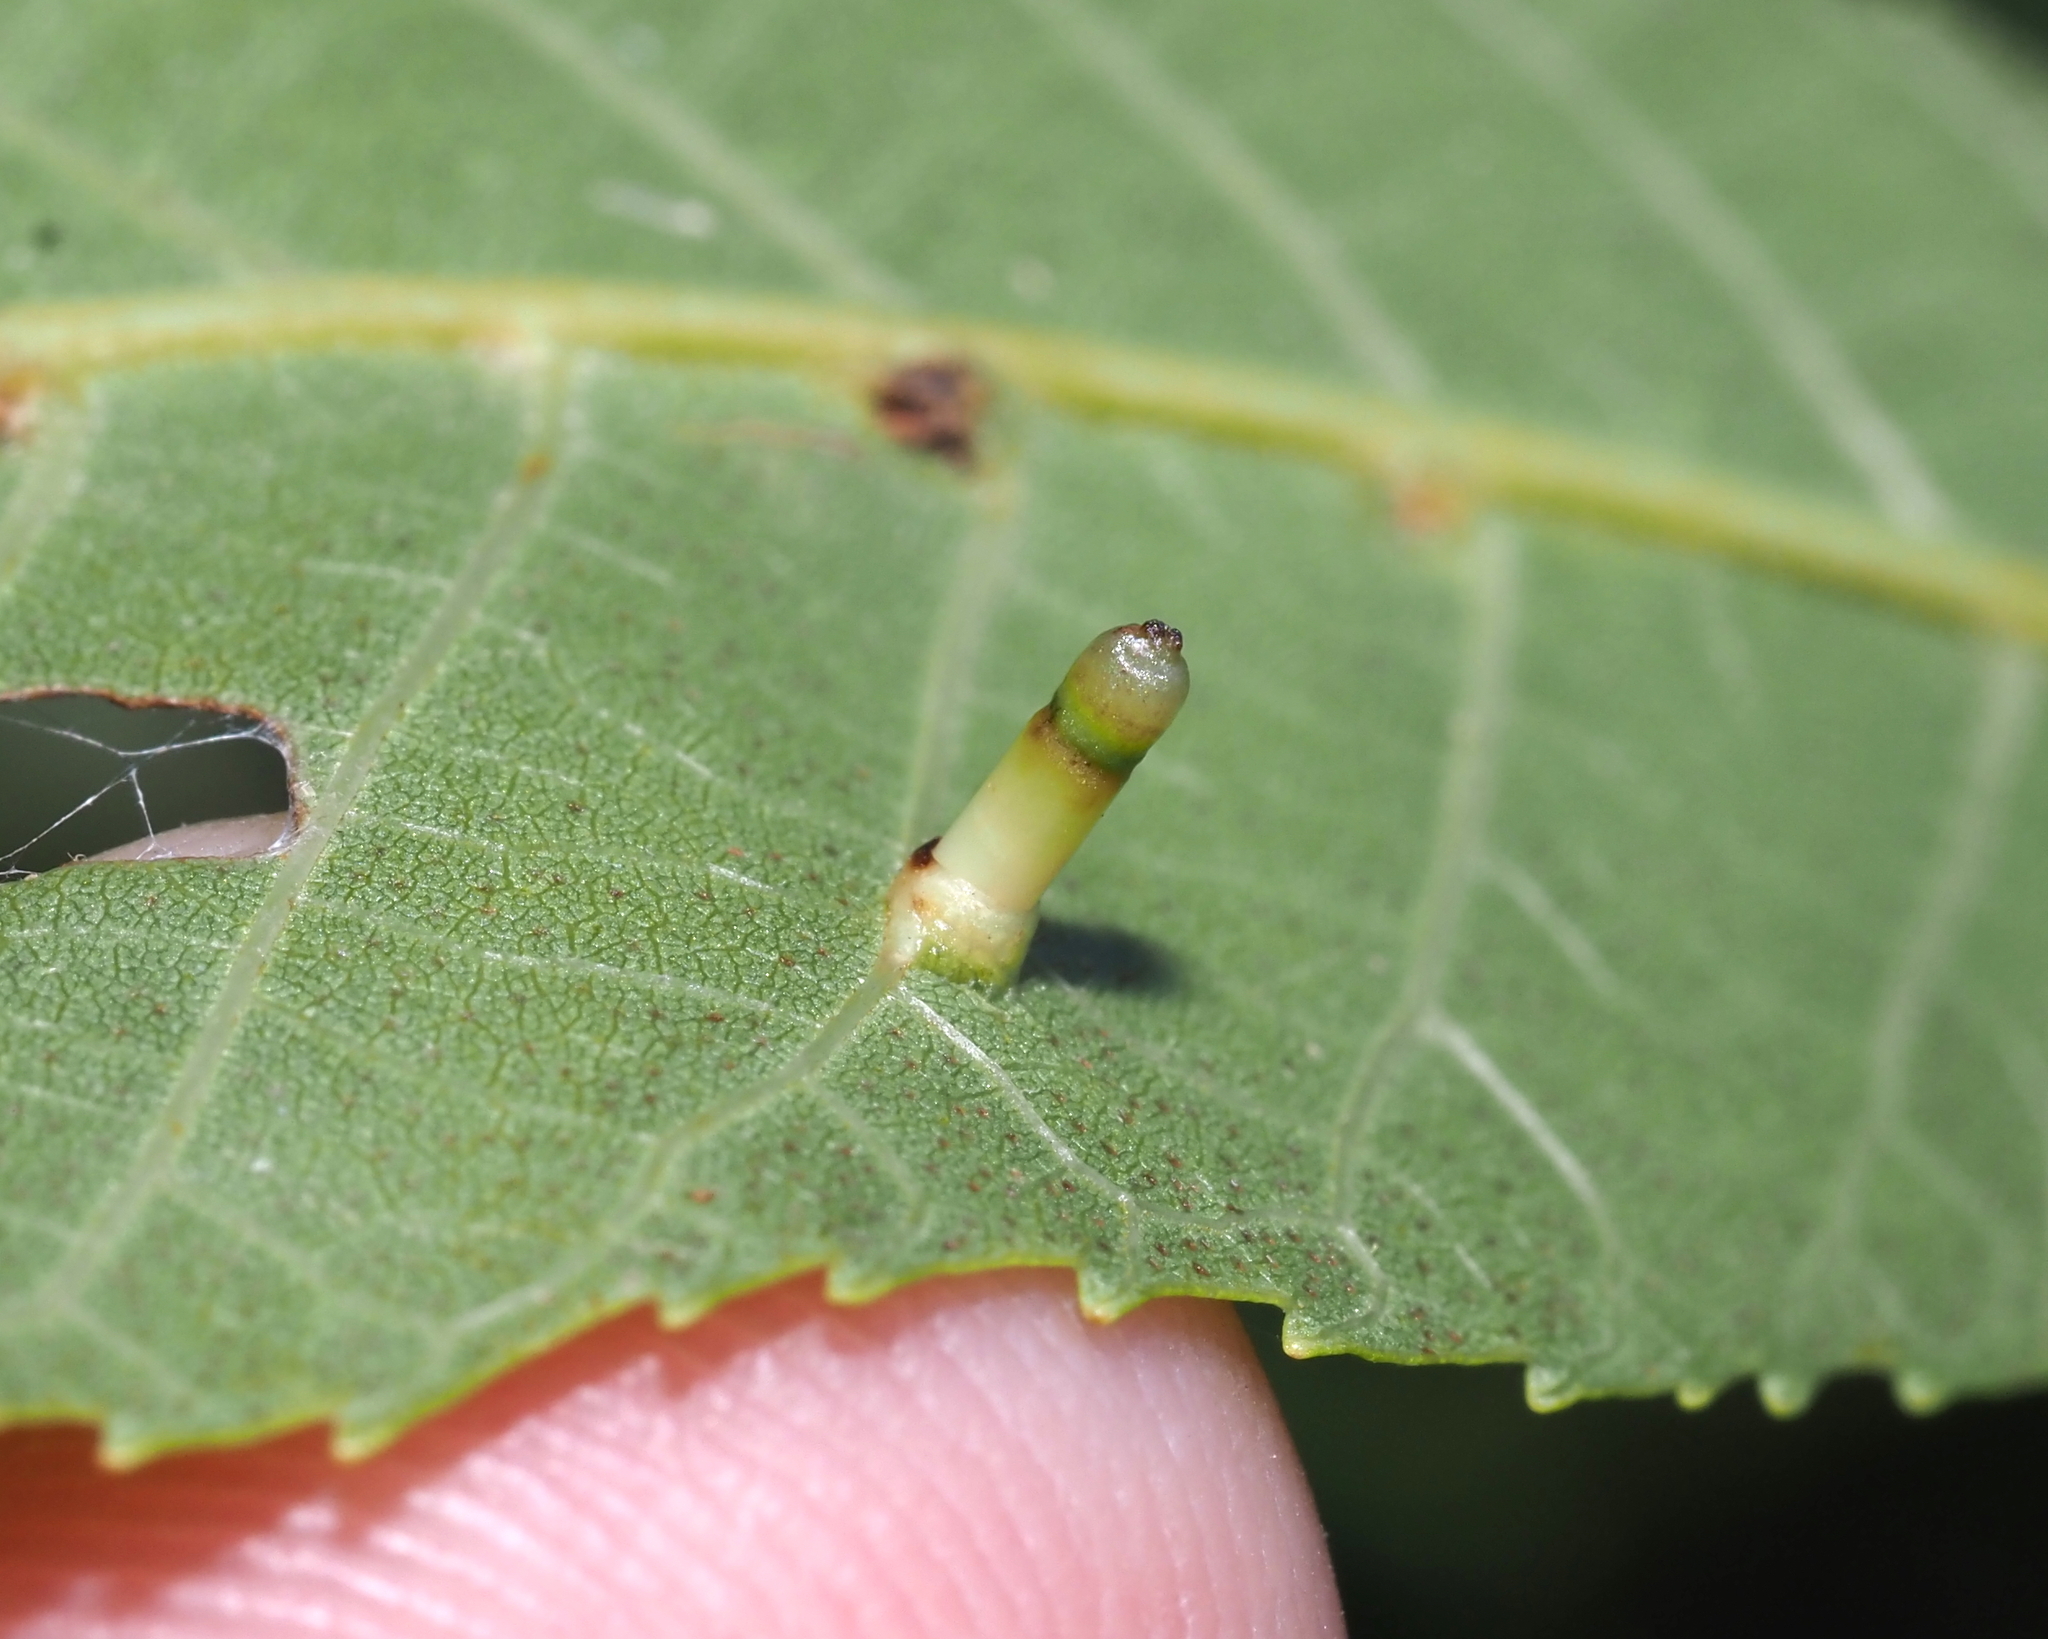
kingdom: Animalia
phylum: Arthropoda
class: Insecta
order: Diptera
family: Cecidomyiidae
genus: Caryomyia
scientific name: Caryomyia tubicola
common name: Hickory bullet gall midge
